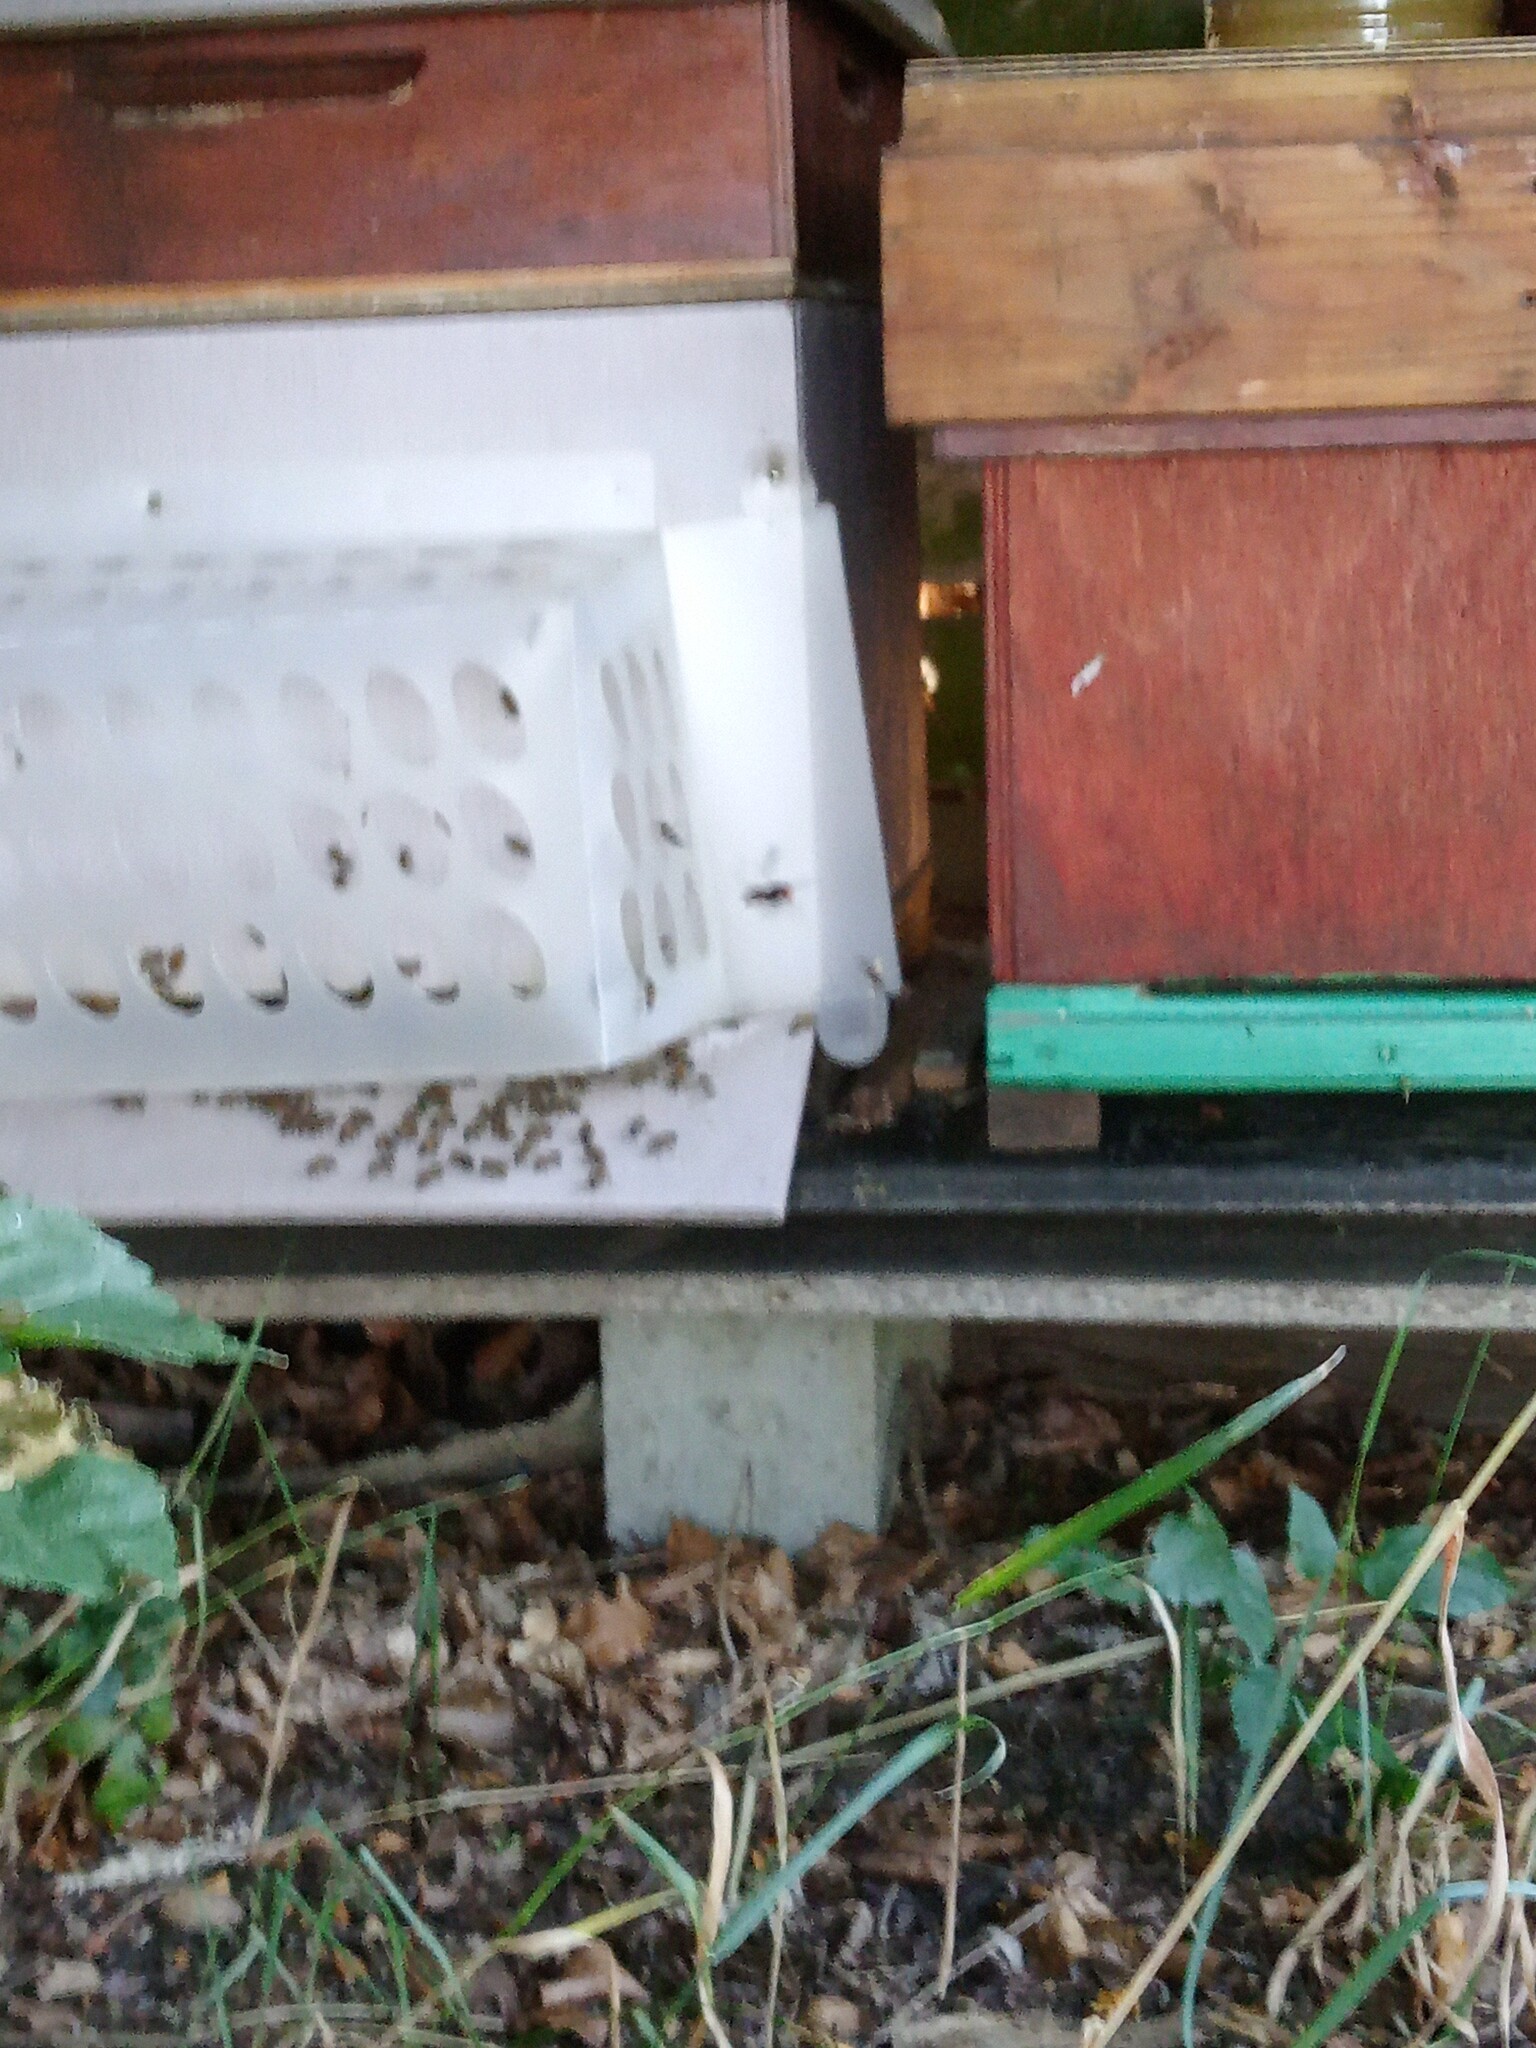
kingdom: Animalia
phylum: Arthropoda
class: Insecta
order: Hymenoptera
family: Vespidae
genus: Vespa
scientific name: Vespa velutina
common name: Asian hornet
